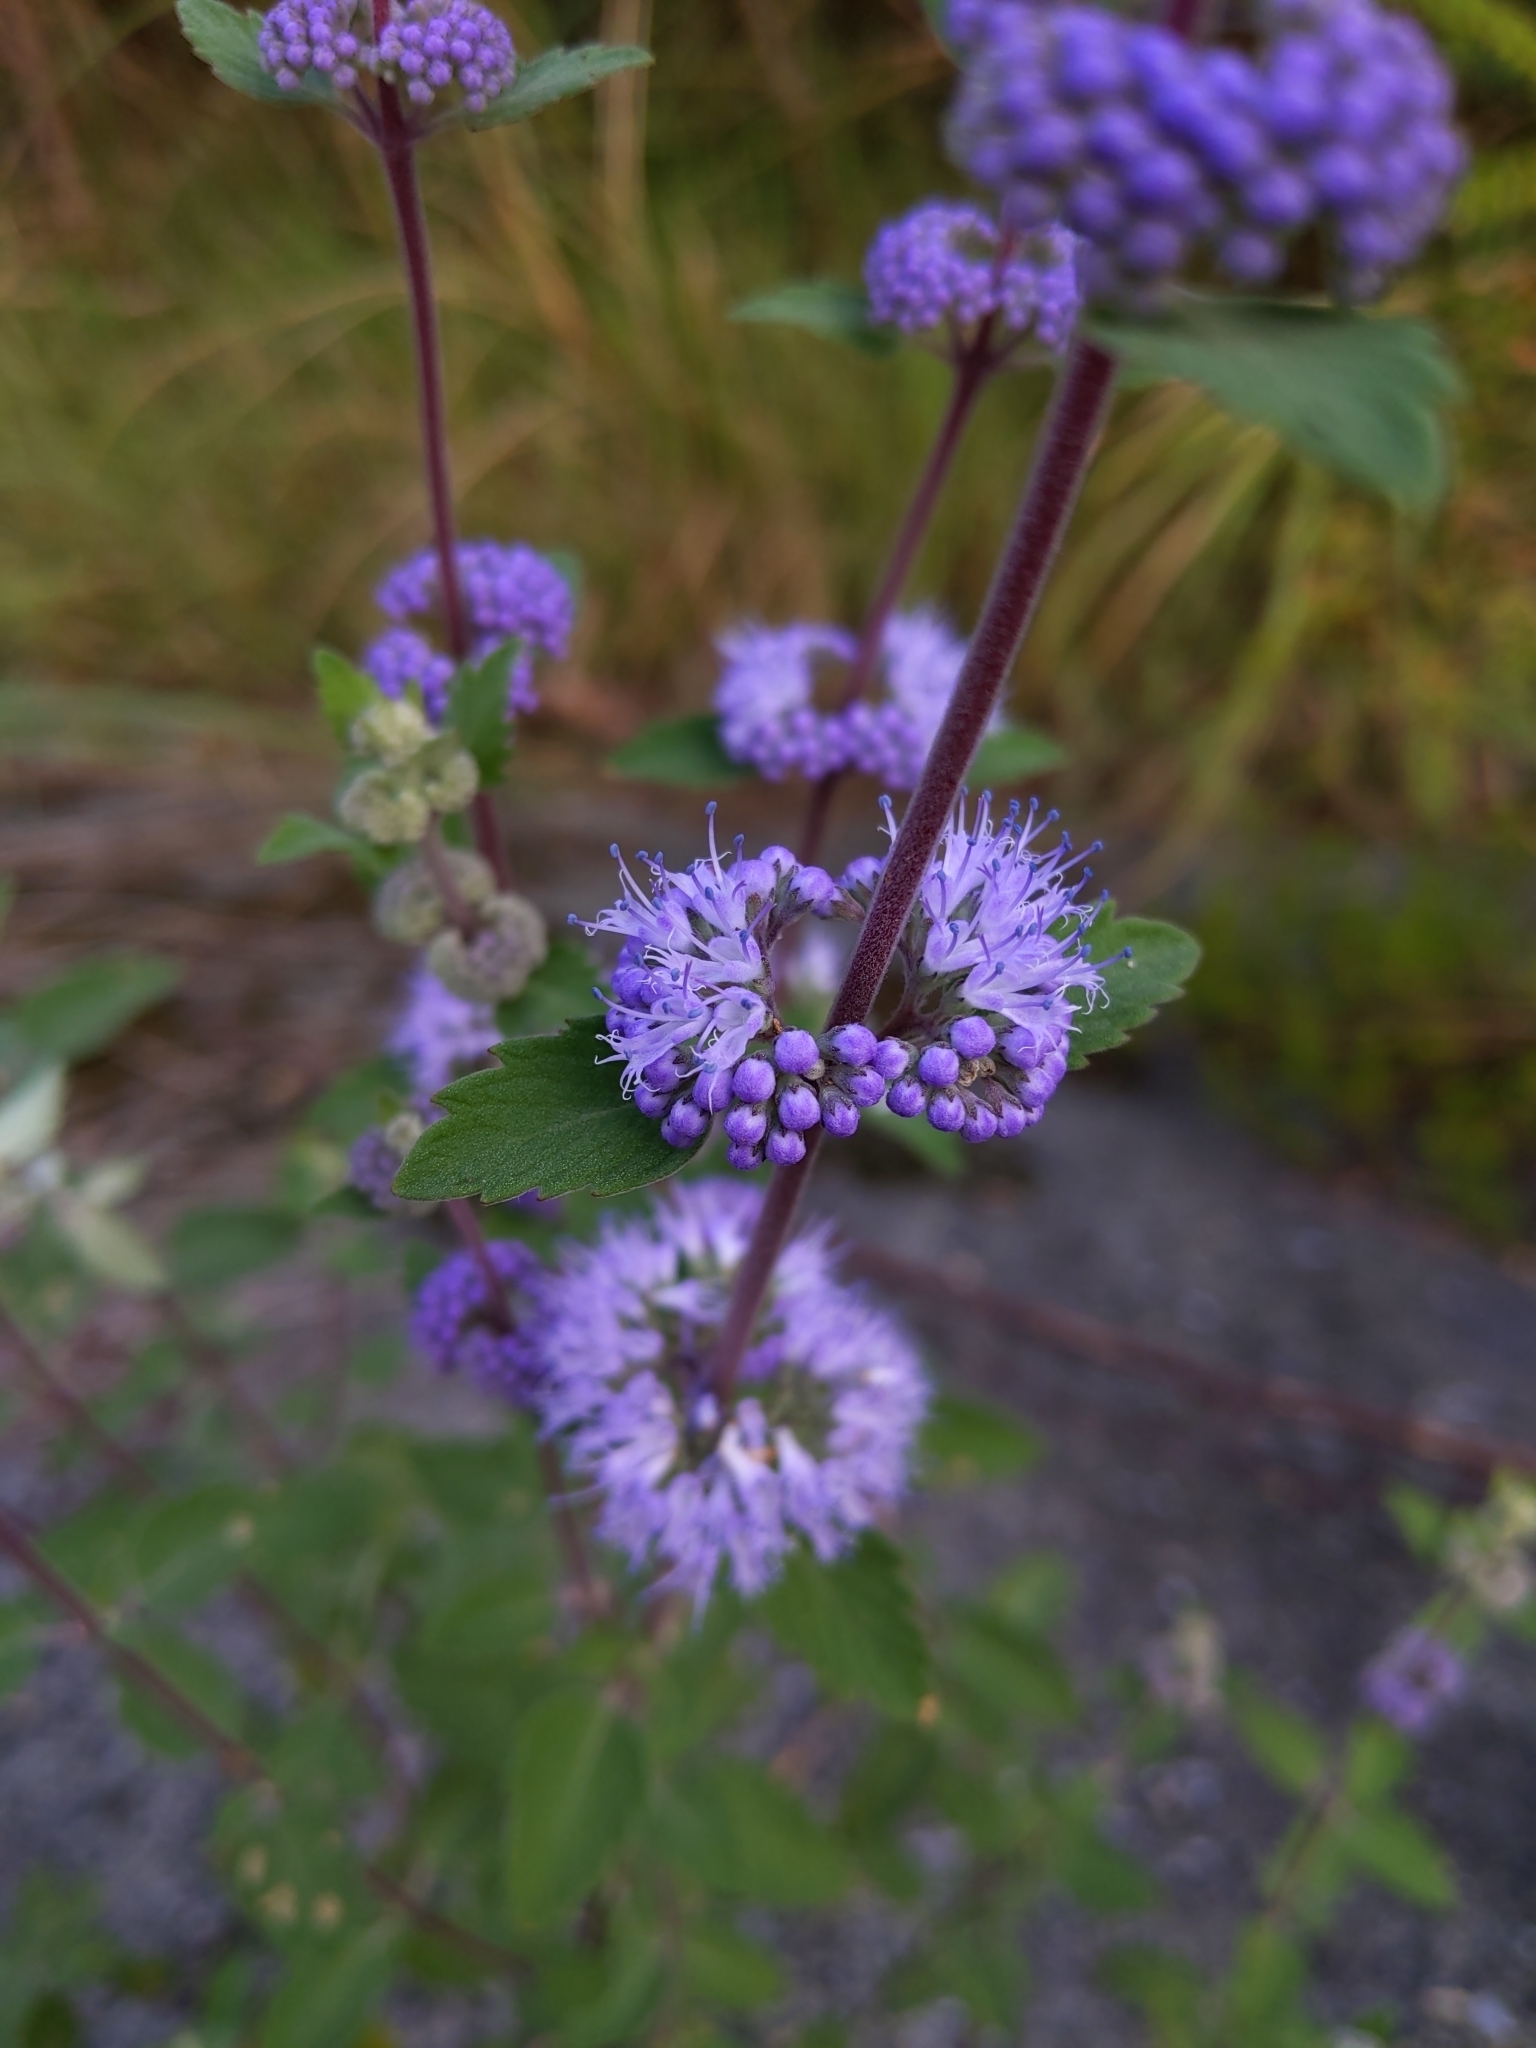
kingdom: Plantae
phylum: Tracheophyta
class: Magnoliopsida
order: Lamiales
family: Lamiaceae
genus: Caryopteris
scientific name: Caryopteris incana
